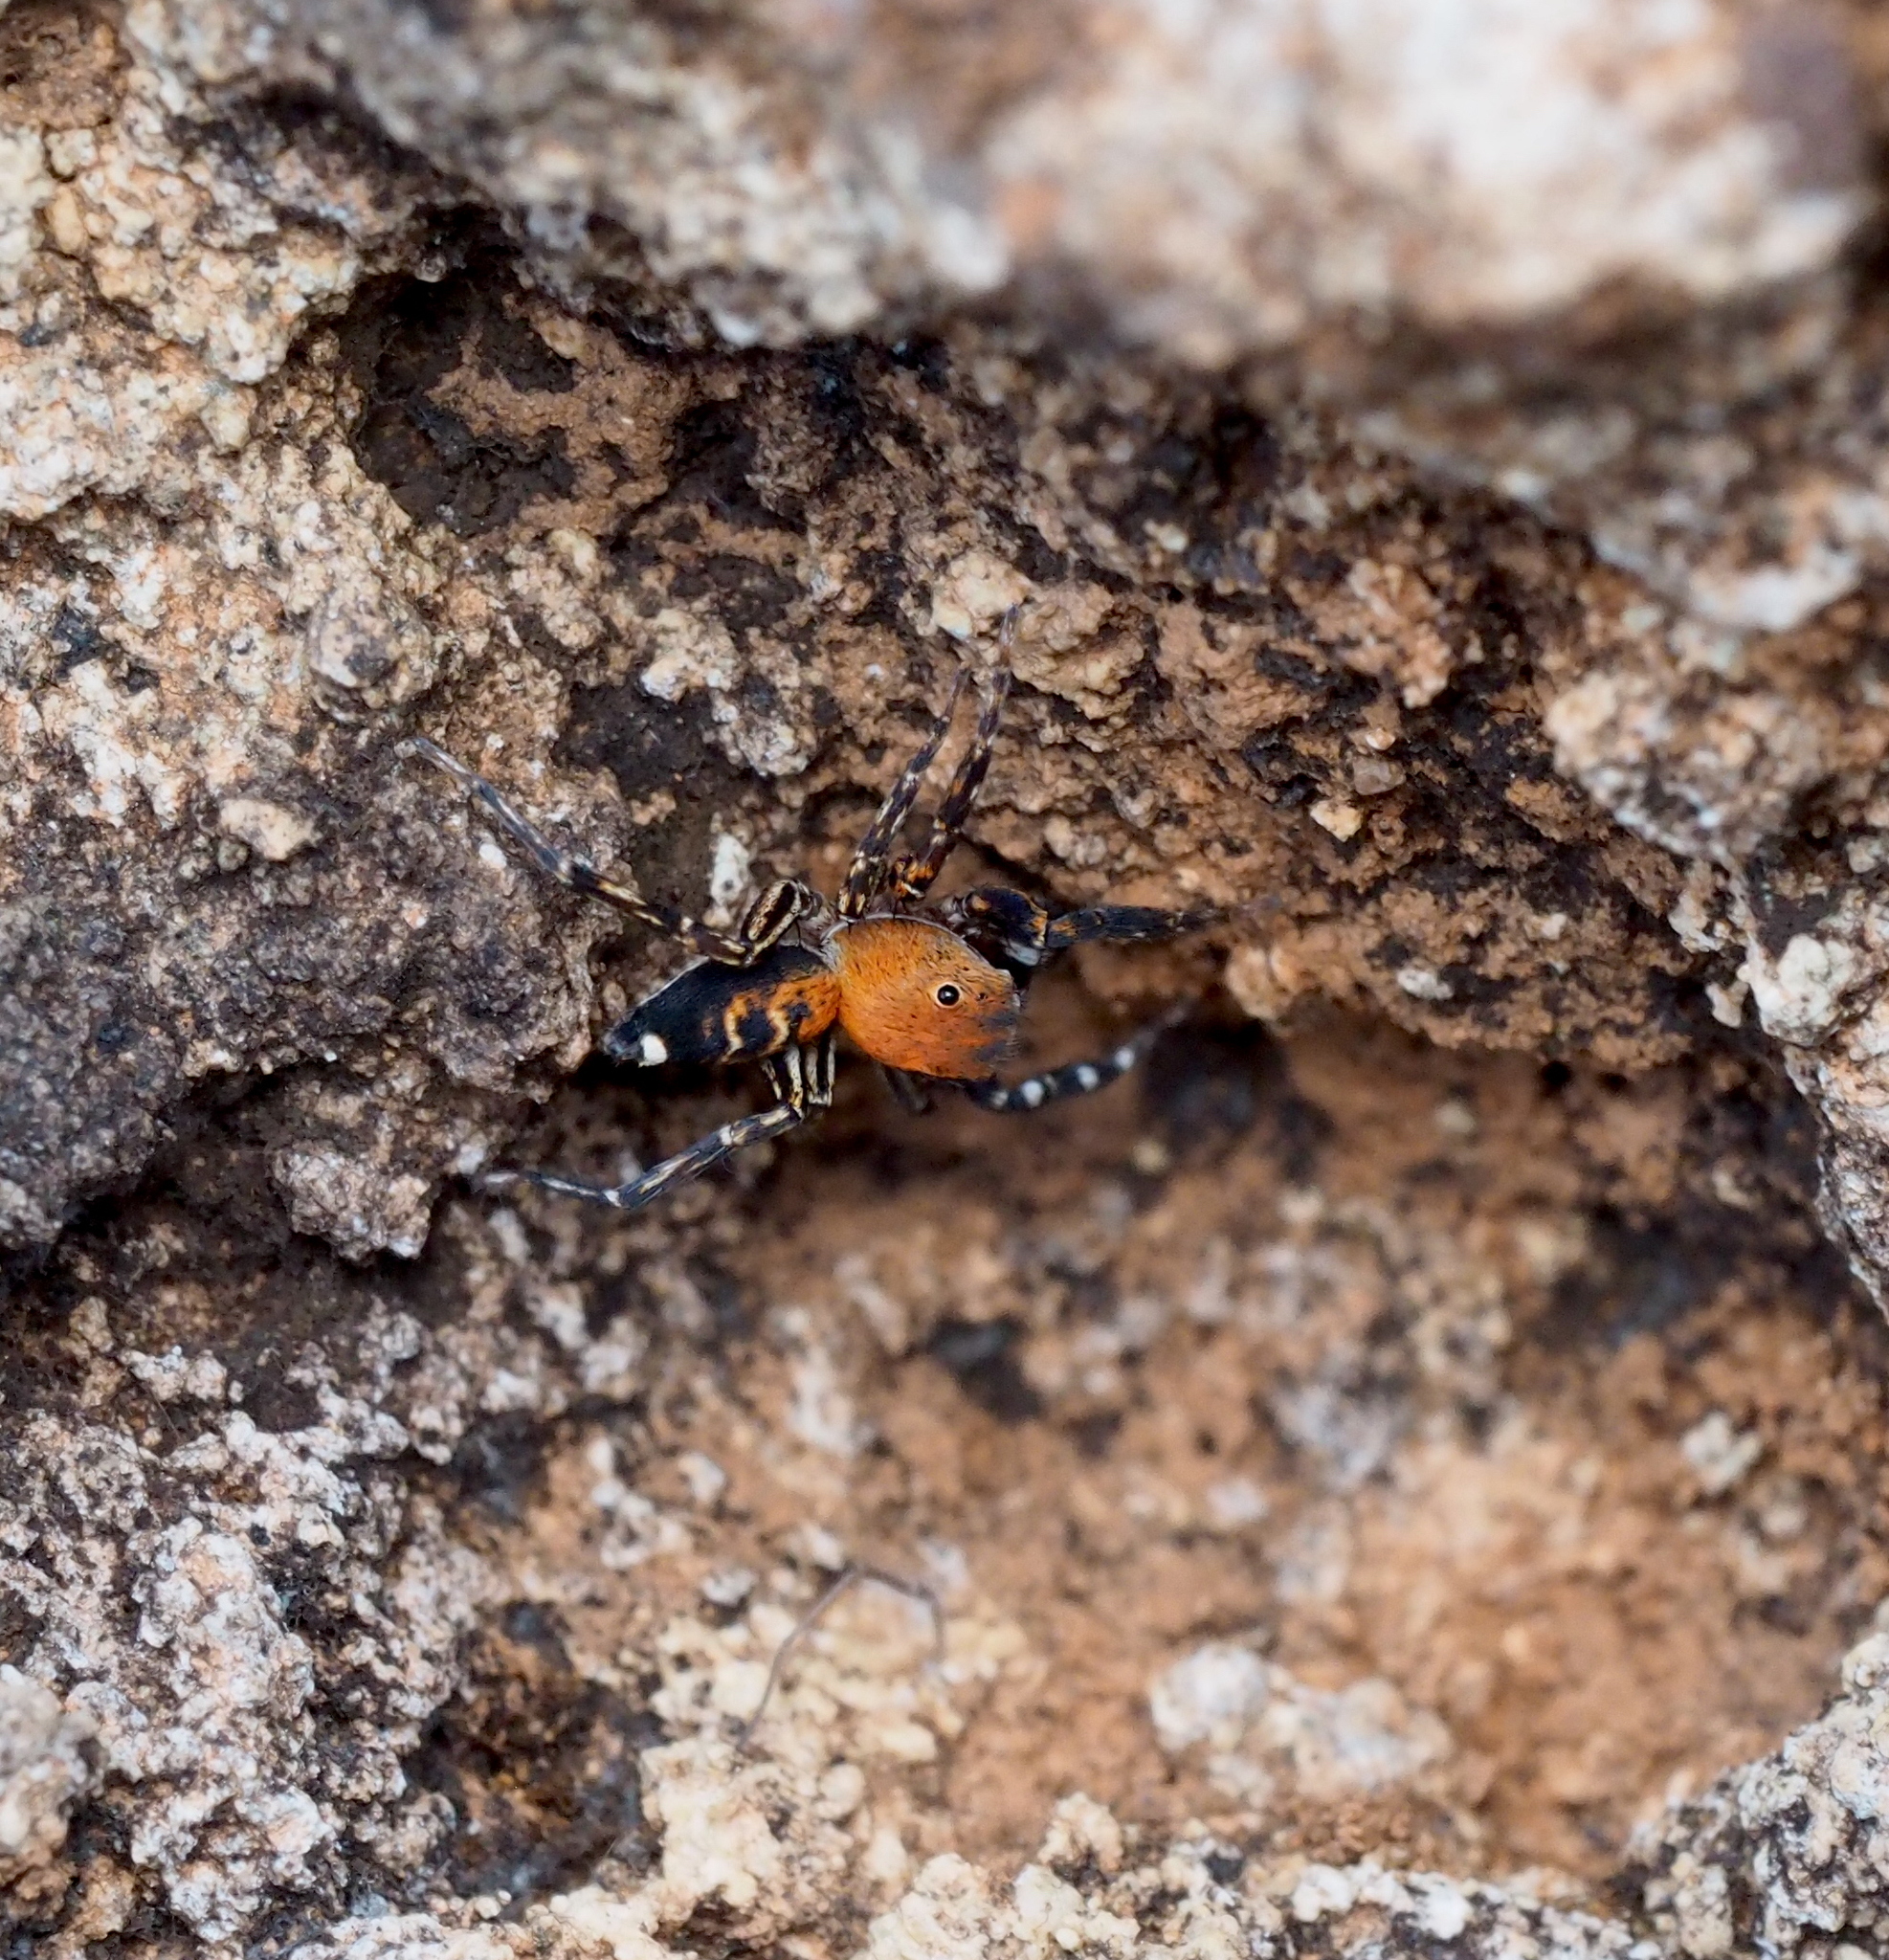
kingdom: Animalia
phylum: Arthropoda
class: Arachnida
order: Araneae
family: Salticidae
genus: Cyrba
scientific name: Cyrba algerina
